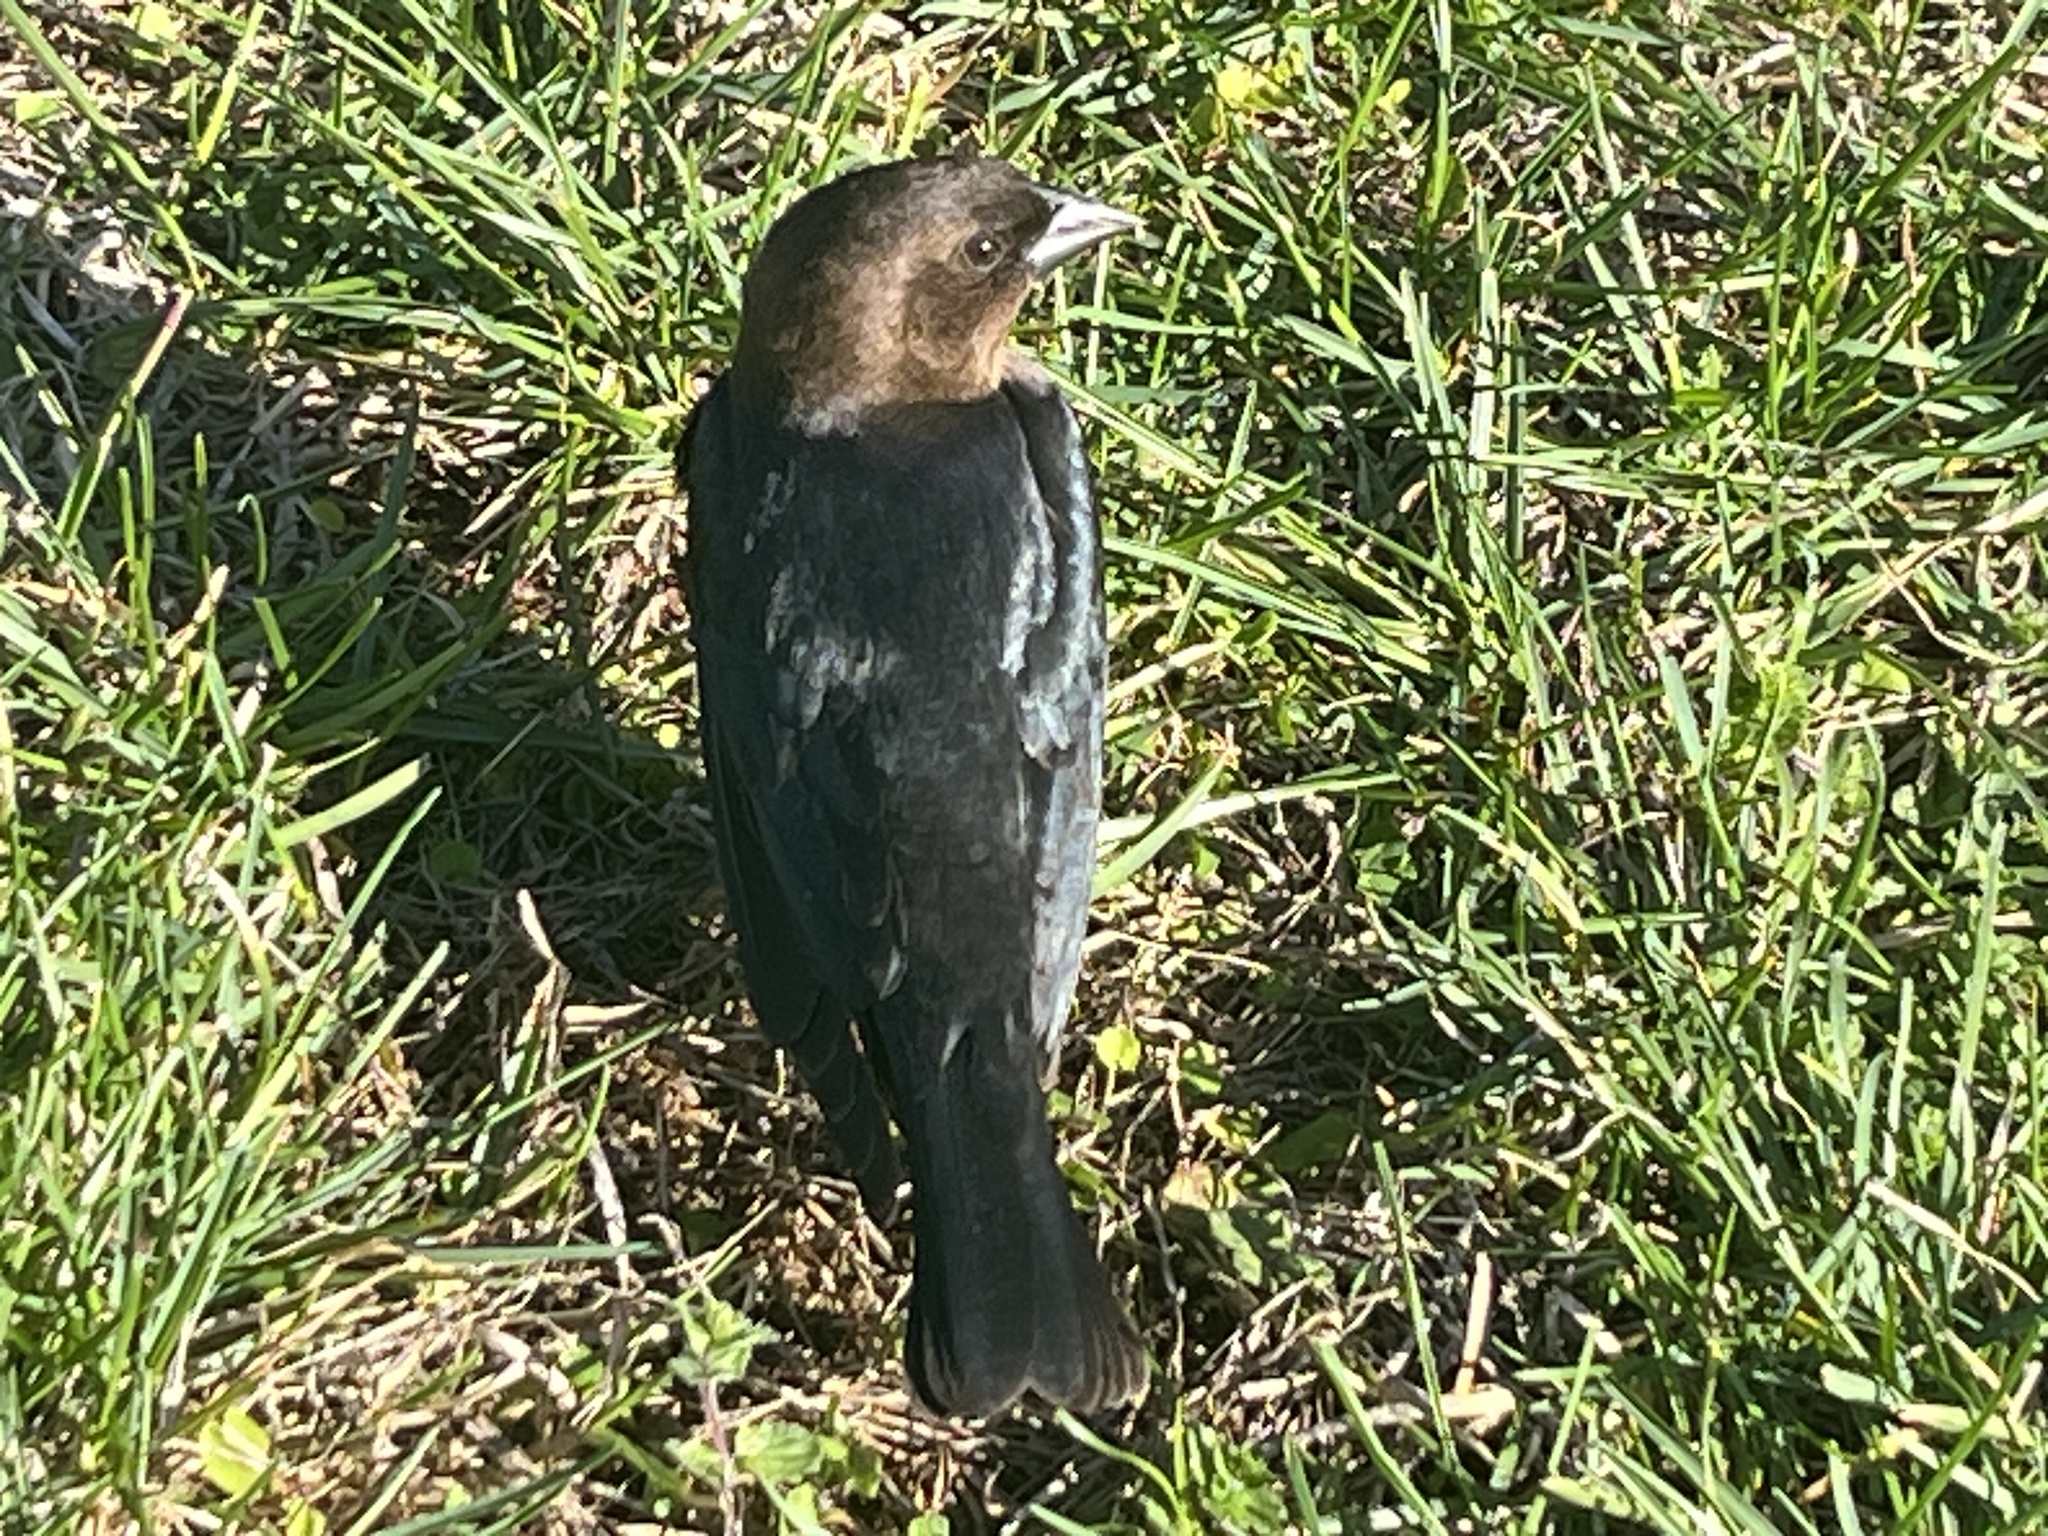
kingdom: Animalia
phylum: Chordata
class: Aves
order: Passeriformes
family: Icteridae
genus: Molothrus
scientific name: Molothrus ater
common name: Brown-headed cowbird
